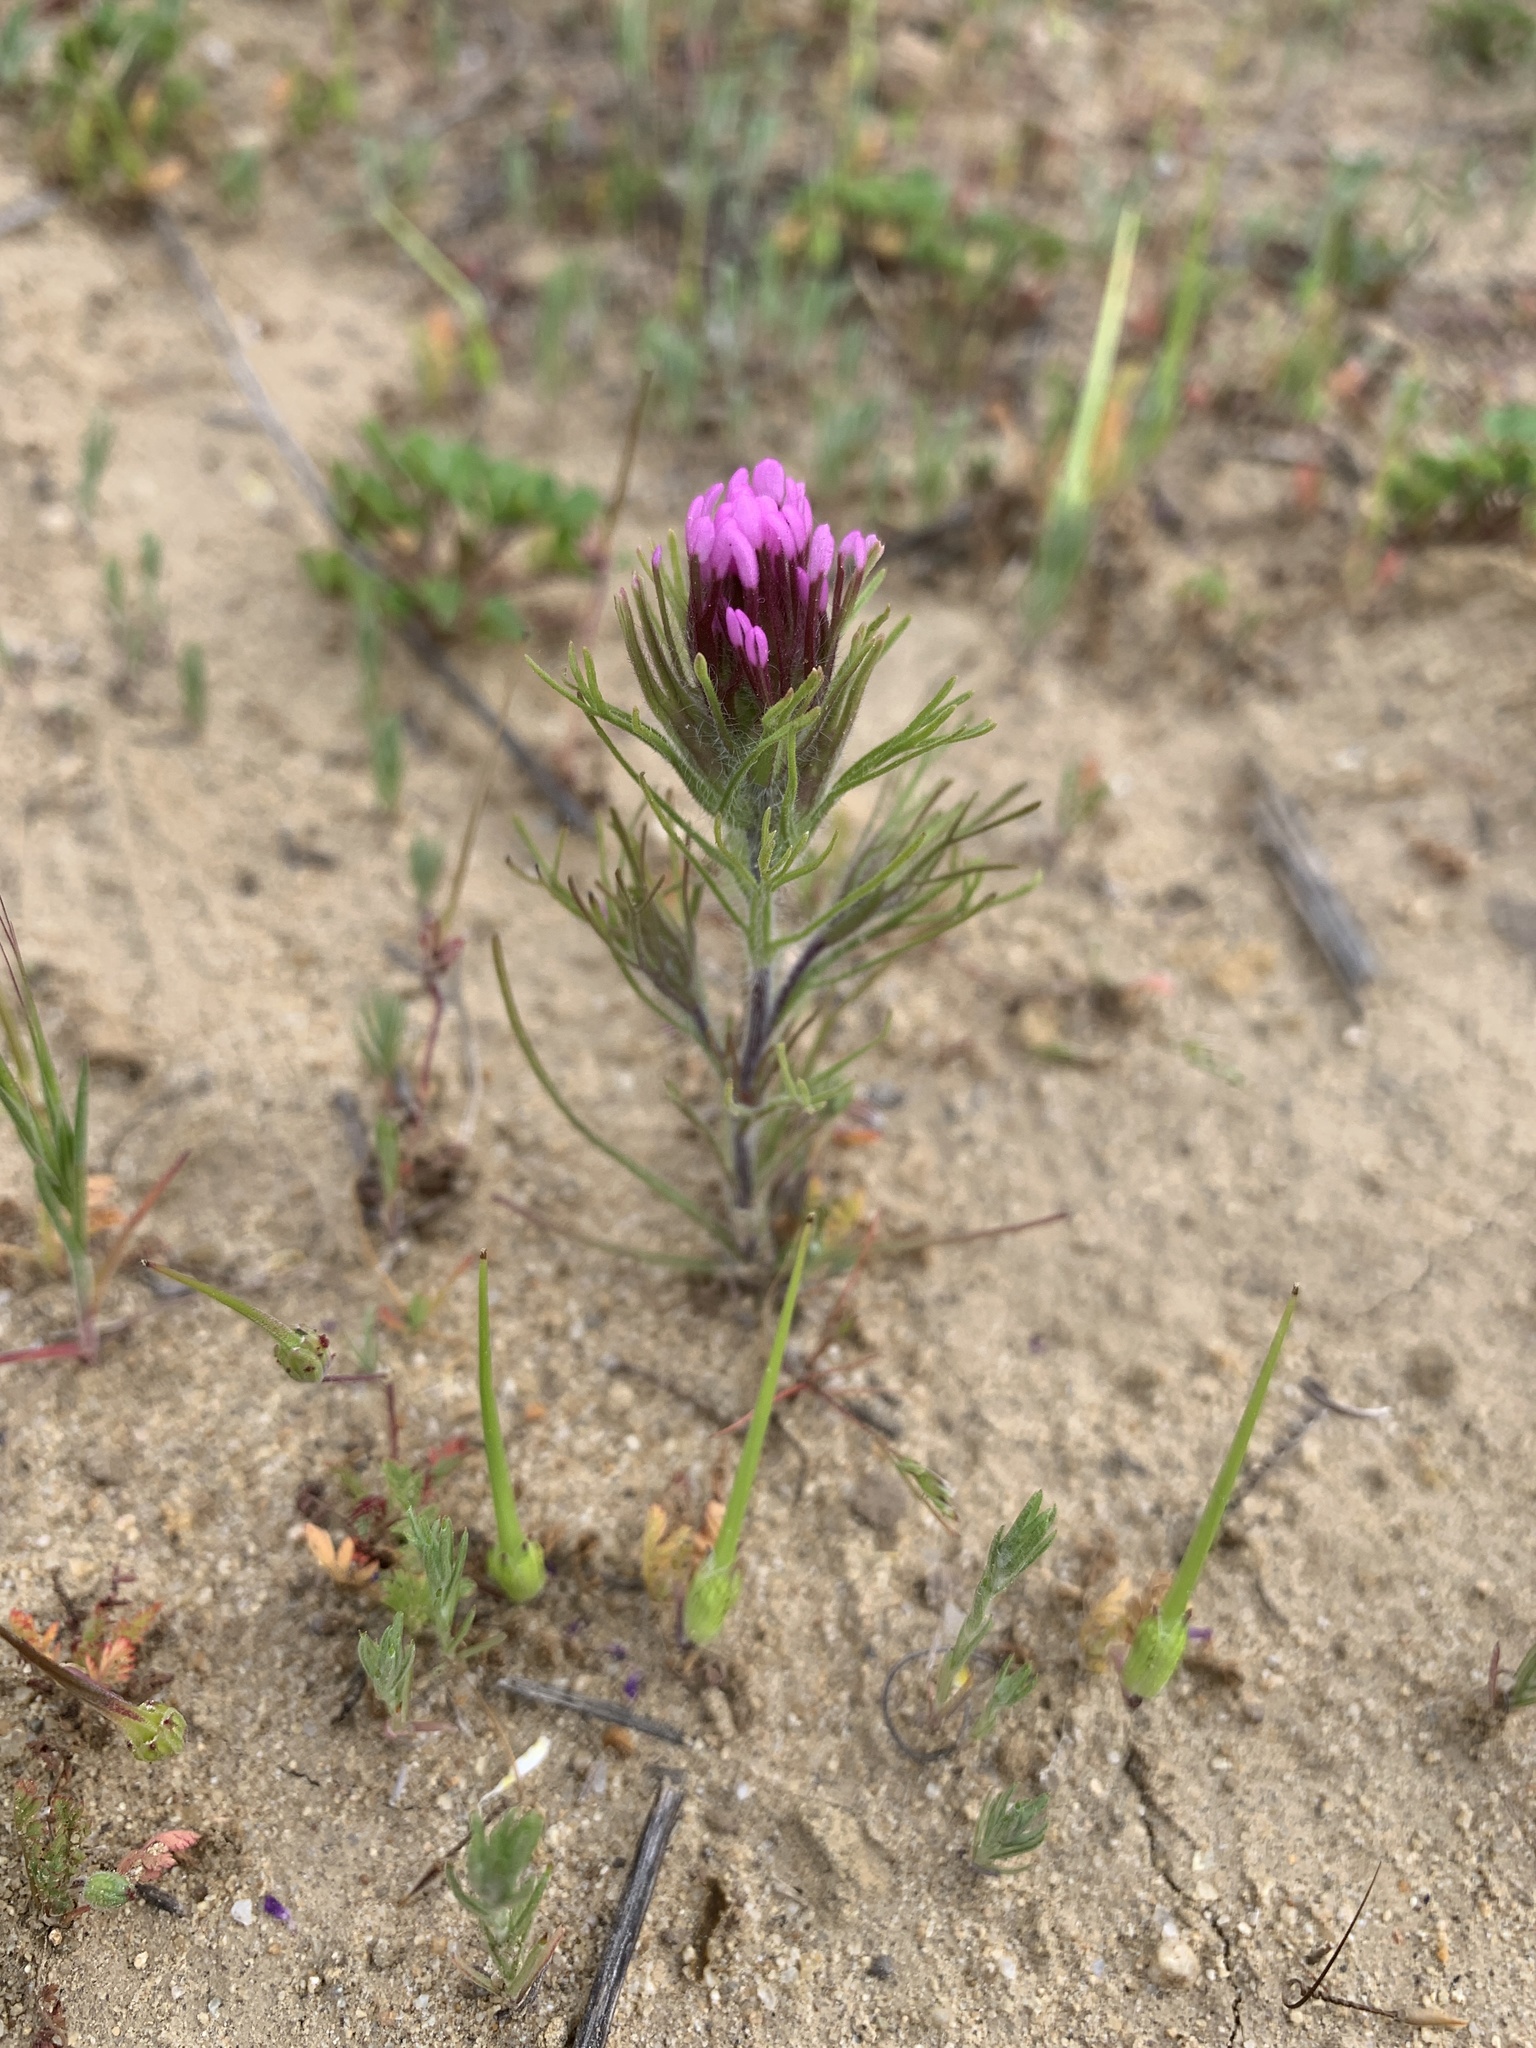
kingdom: Plantae
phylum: Tracheophyta
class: Magnoliopsida
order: Lamiales
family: Orobanchaceae
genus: Castilleja
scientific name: Castilleja exserta
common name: Purple owl-clover
